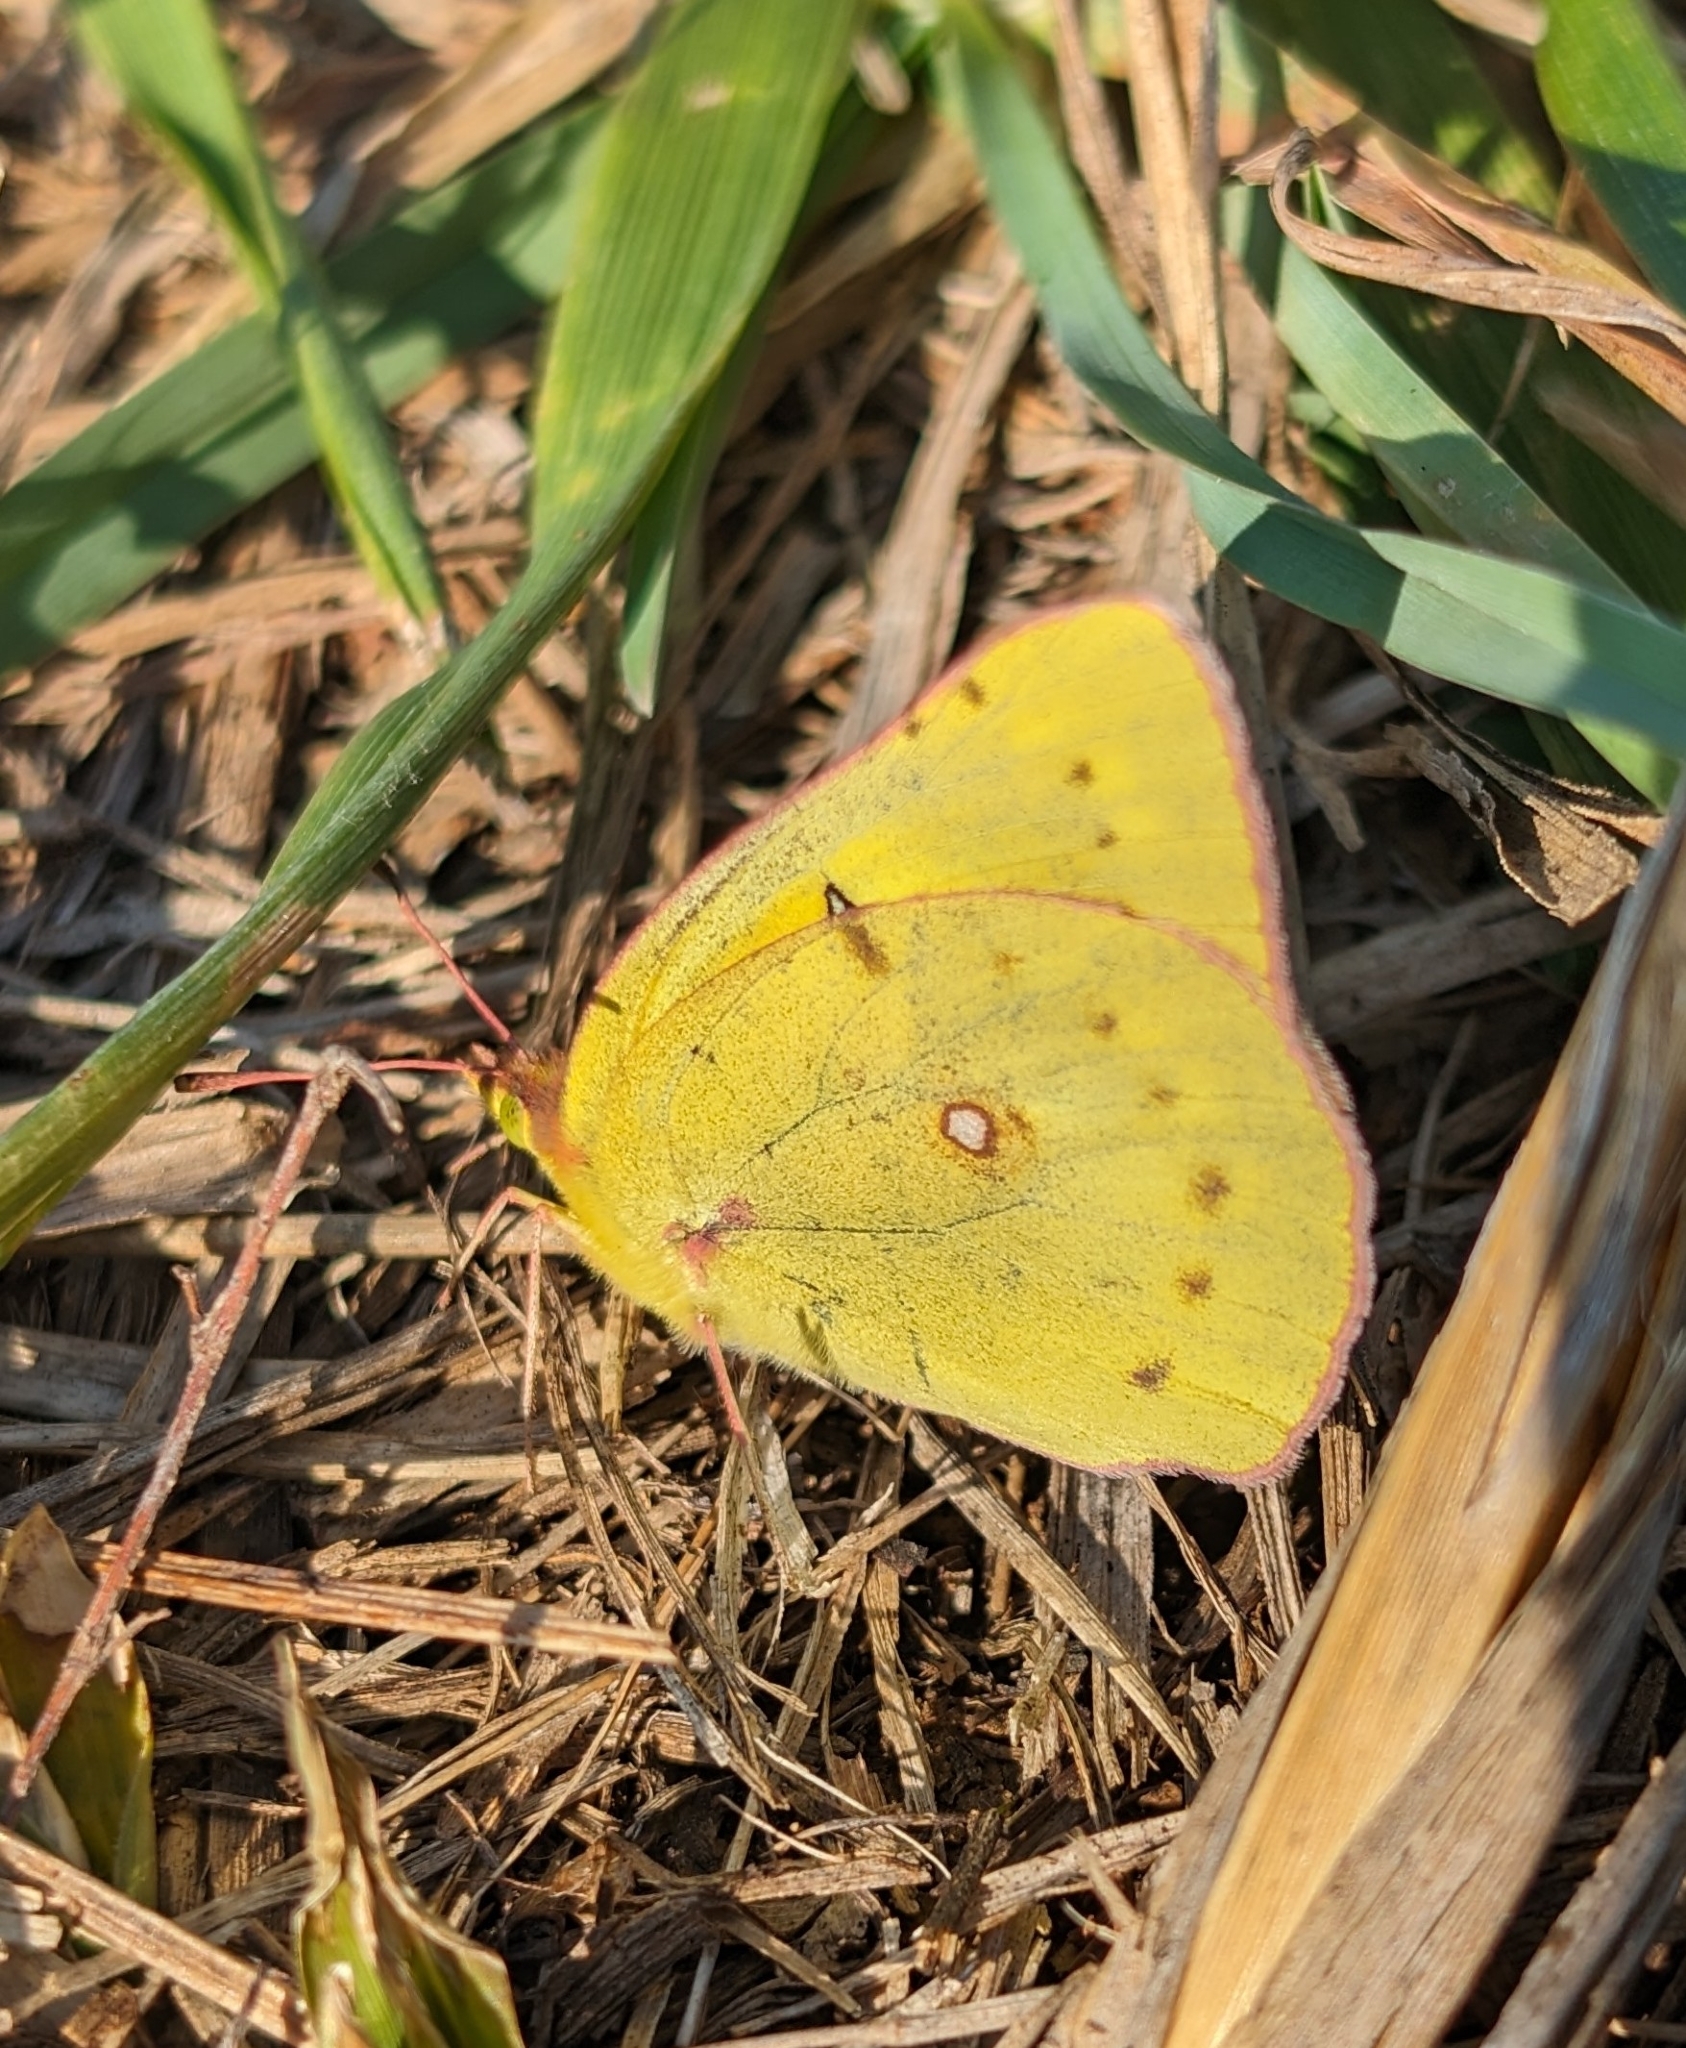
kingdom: Animalia
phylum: Arthropoda
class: Insecta
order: Lepidoptera
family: Pieridae
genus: Colias
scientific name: Colias eurytheme
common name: Alfalfa butterfly
